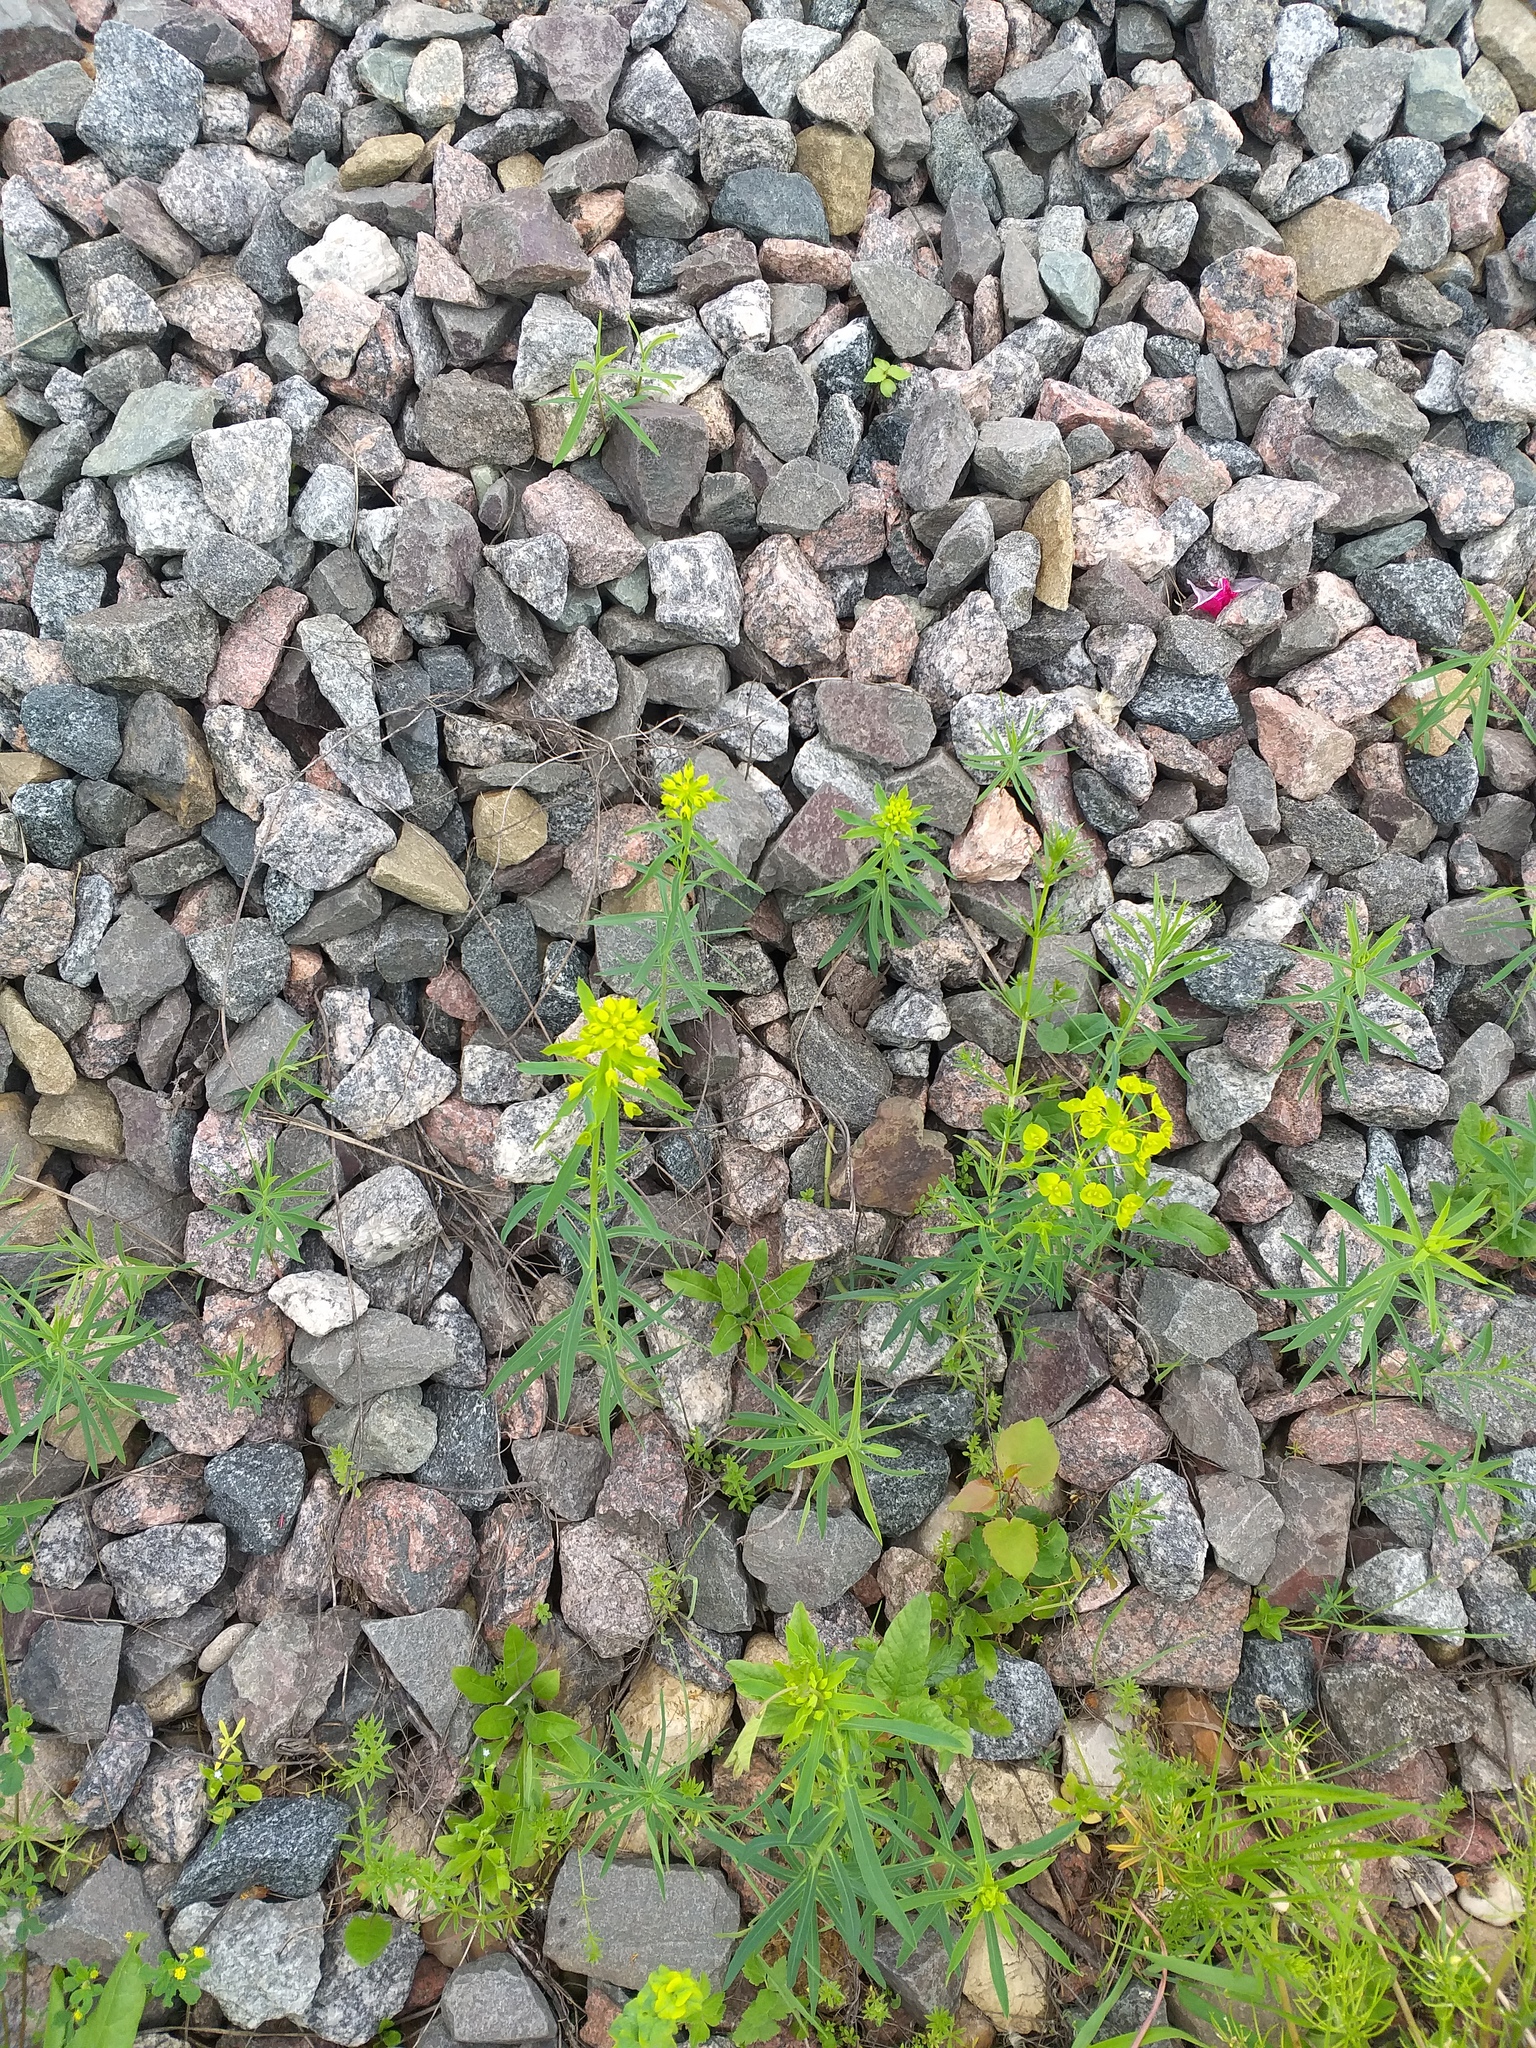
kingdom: Plantae
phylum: Tracheophyta
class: Magnoliopsida
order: Malpighiales
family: Euphorbiaceae
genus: Euphorbia
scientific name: Euphorbia virgata
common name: Leafy spurge
